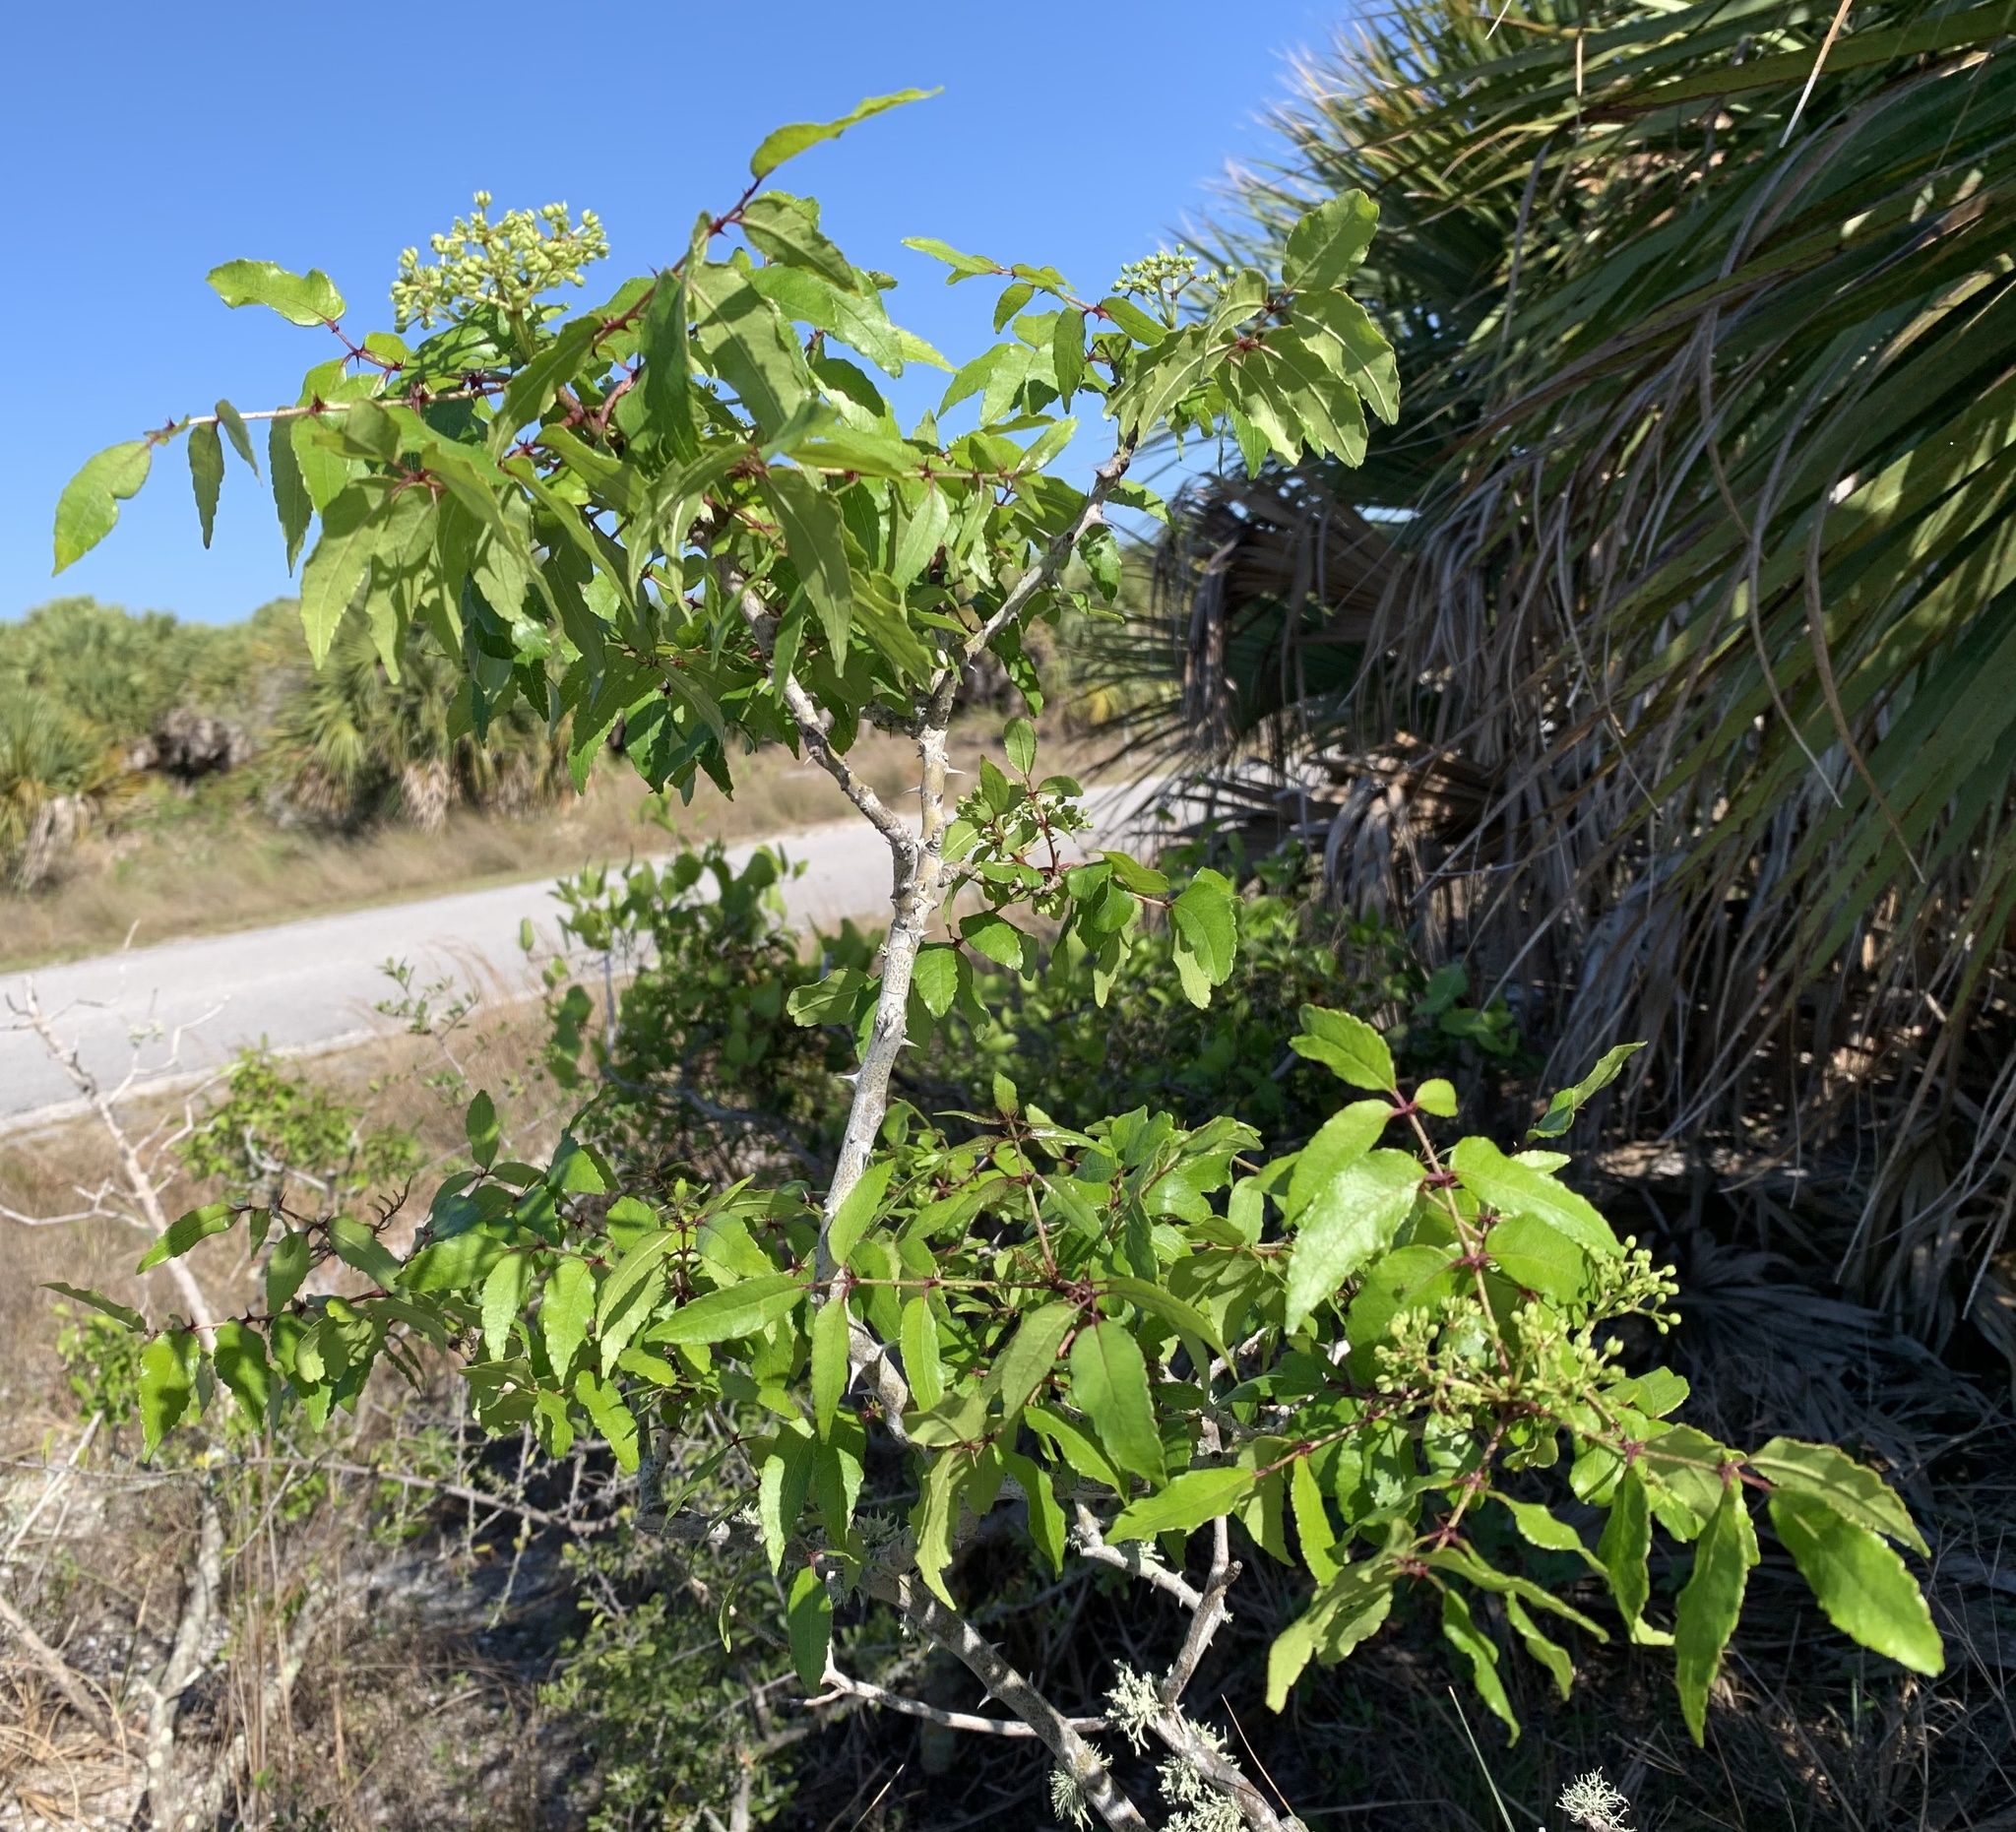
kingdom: Plantae
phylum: Tracheophyta
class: Magnoliopsida
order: Sapindales
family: Rutaceae
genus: Zanthoxylum
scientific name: Zanthoxylum clava-herculis
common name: Hercules'-club
